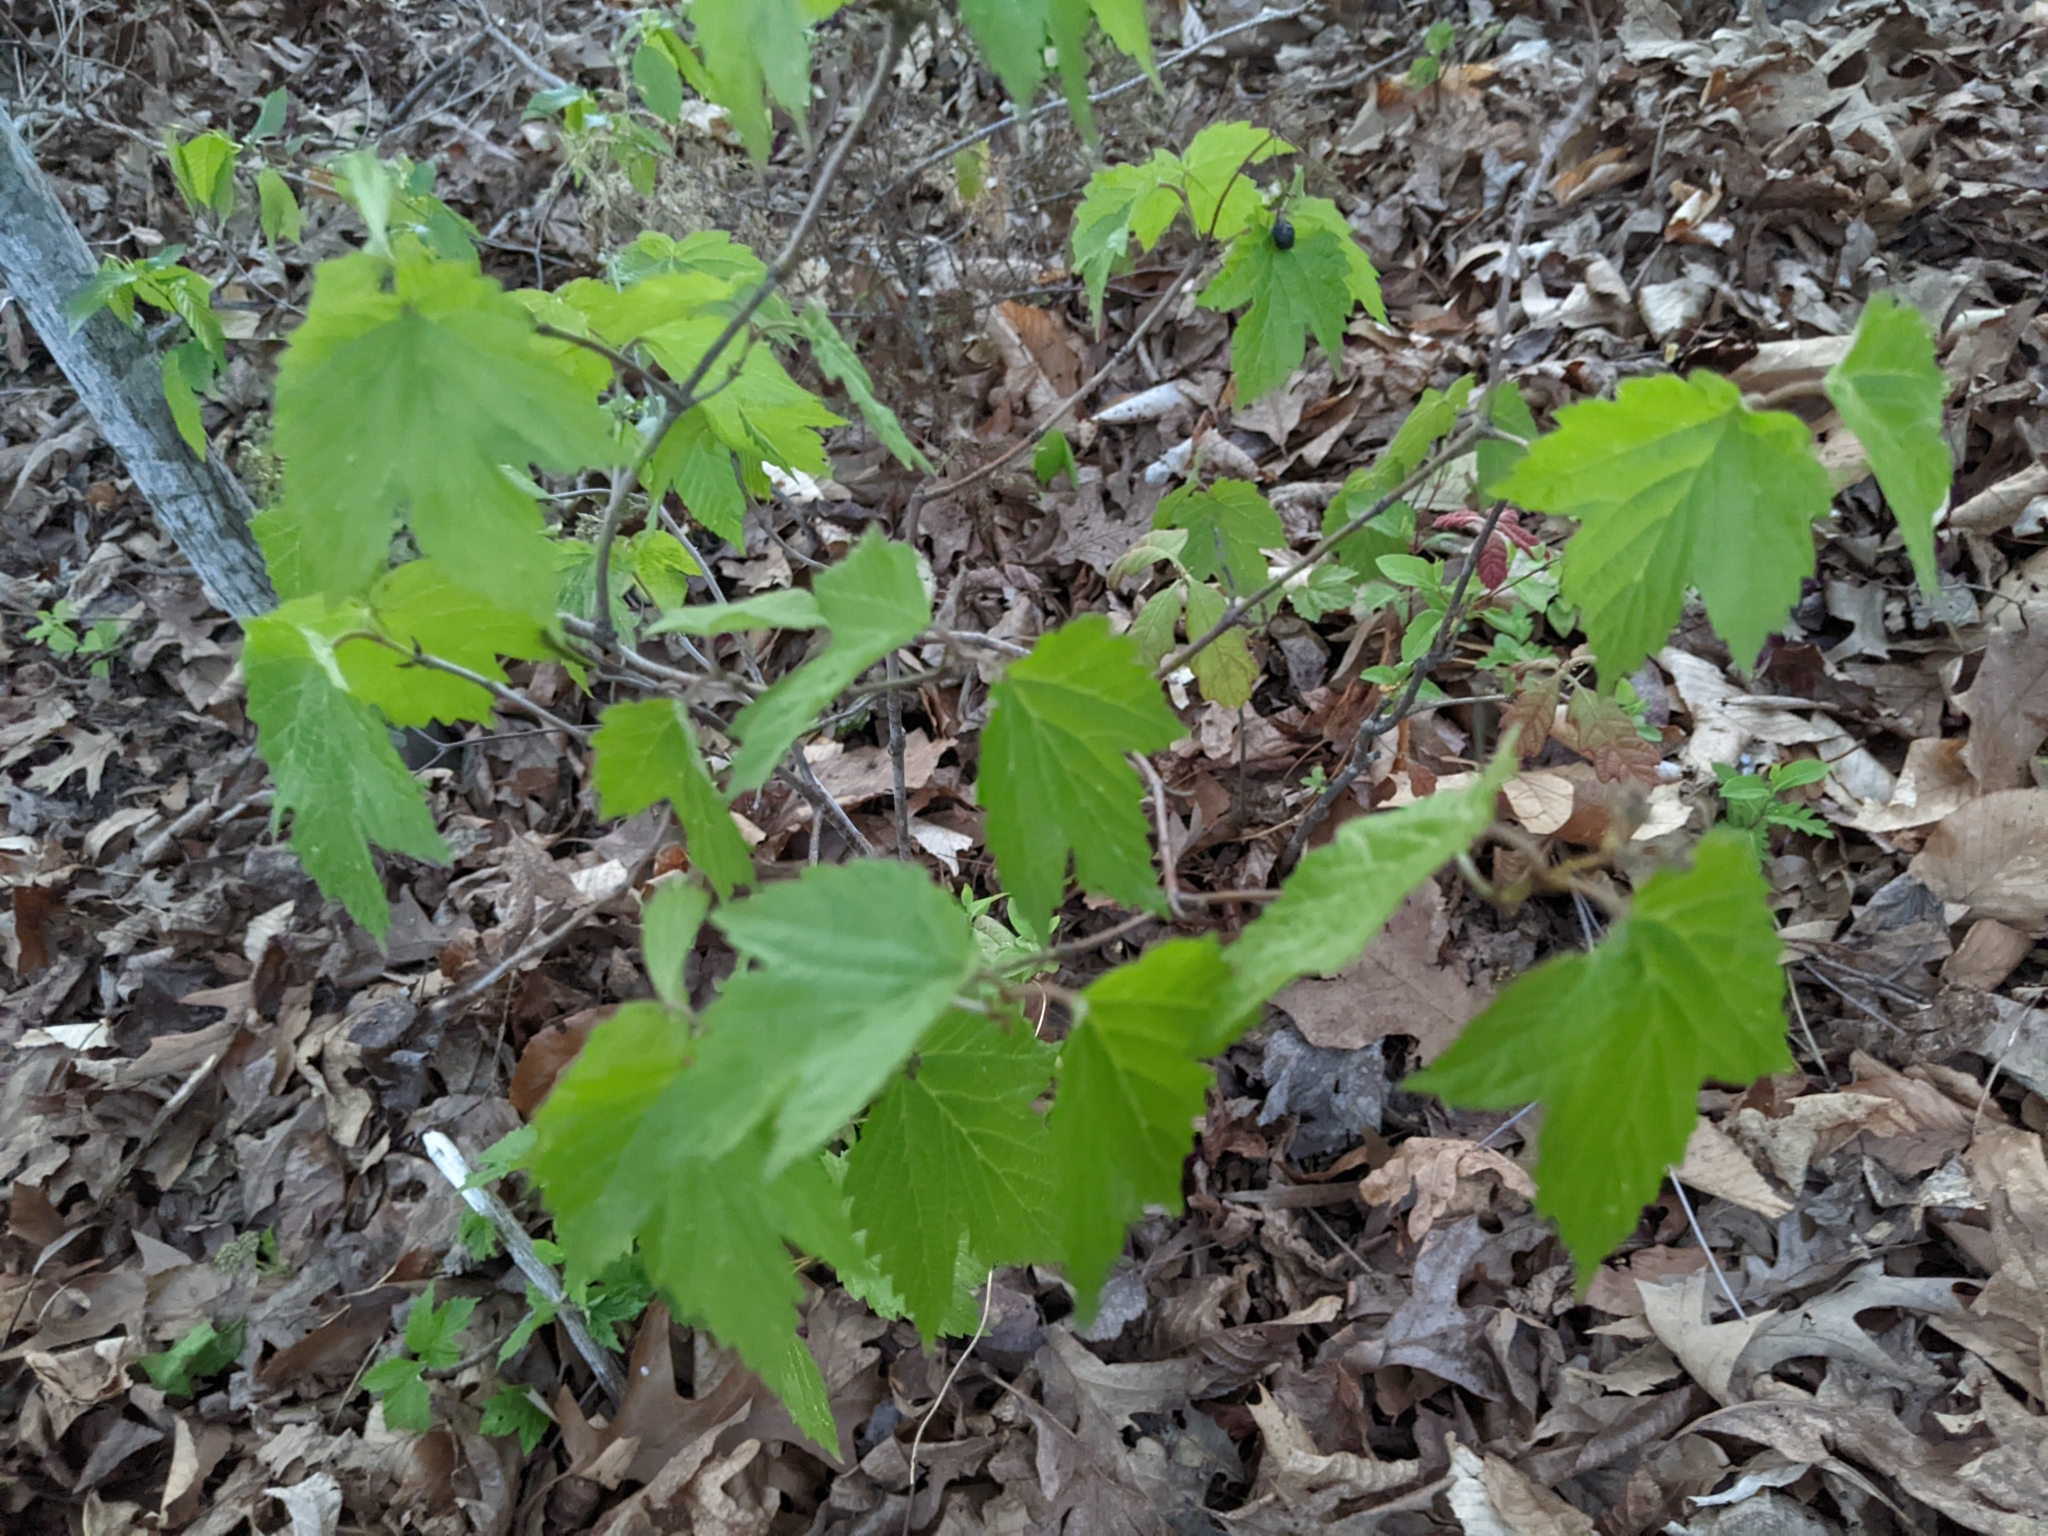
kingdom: Plantae
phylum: Tracheophyta
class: Magnoliopsida
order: Dipsacales
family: Viburnaceae
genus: Viburnum
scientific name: Viburnum acerifolium
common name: Dockmackie
